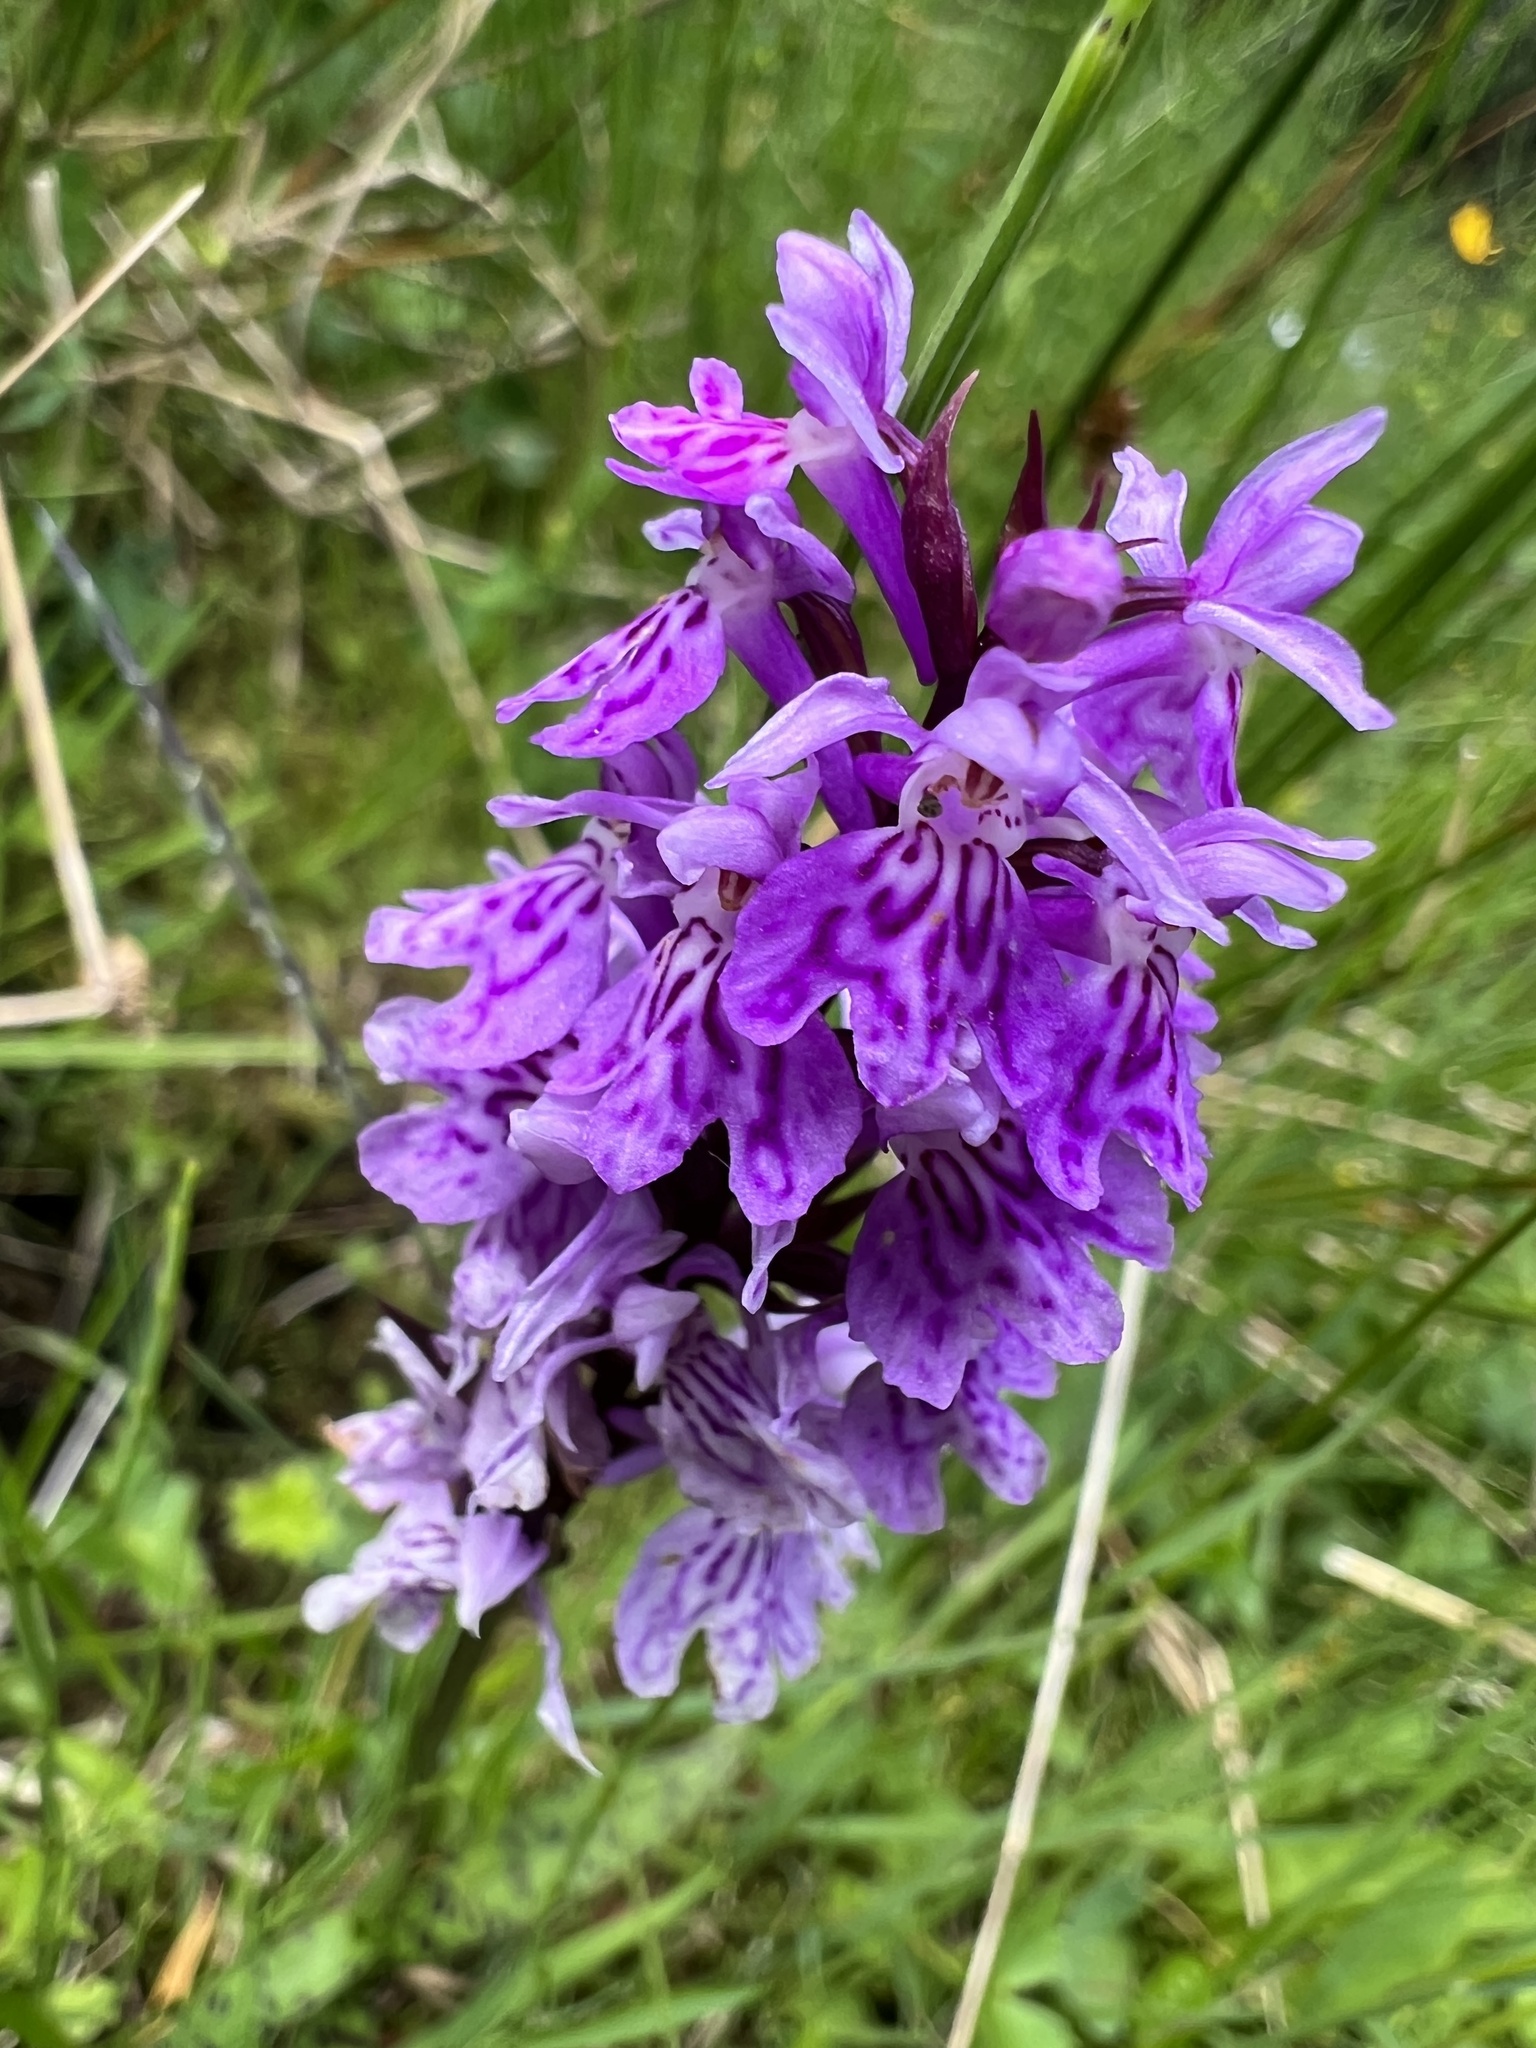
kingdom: Plantae
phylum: Tracheophyta
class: Liliopsida
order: Asparagales
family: Orchidaceae
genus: Dactylorhiza
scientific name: Dactylorhiza maculata
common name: Heath spotted-orchid
